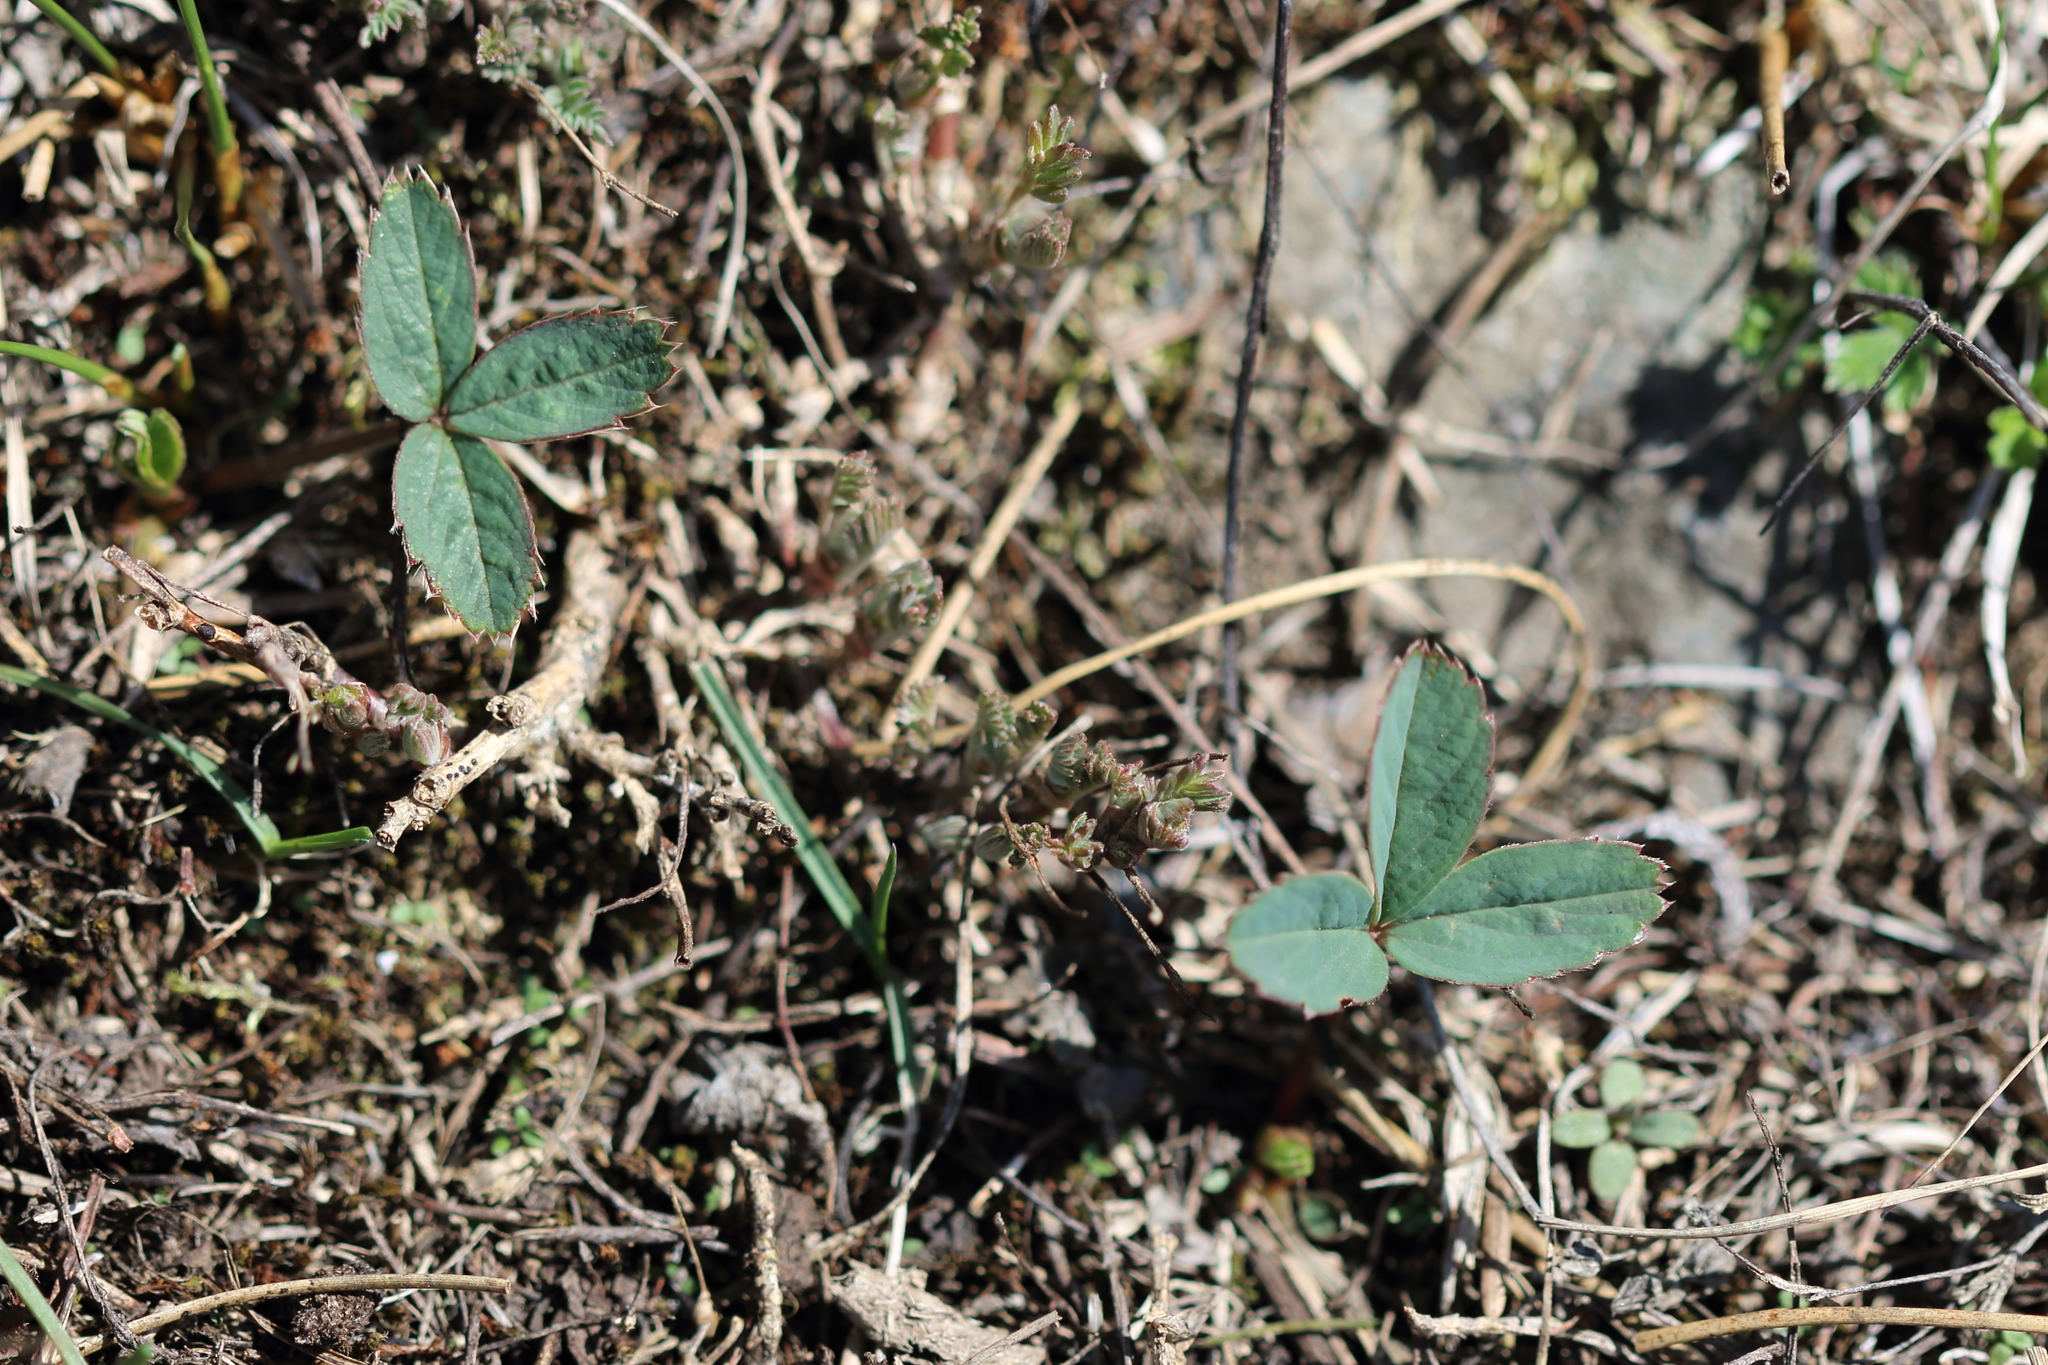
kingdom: Plantae
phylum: Tracheophyta
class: Magnoliopsida
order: Rosales
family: Rosaceae
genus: Fragaria
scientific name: Fragaria virginiana
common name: Thickleaved wild strawberry
